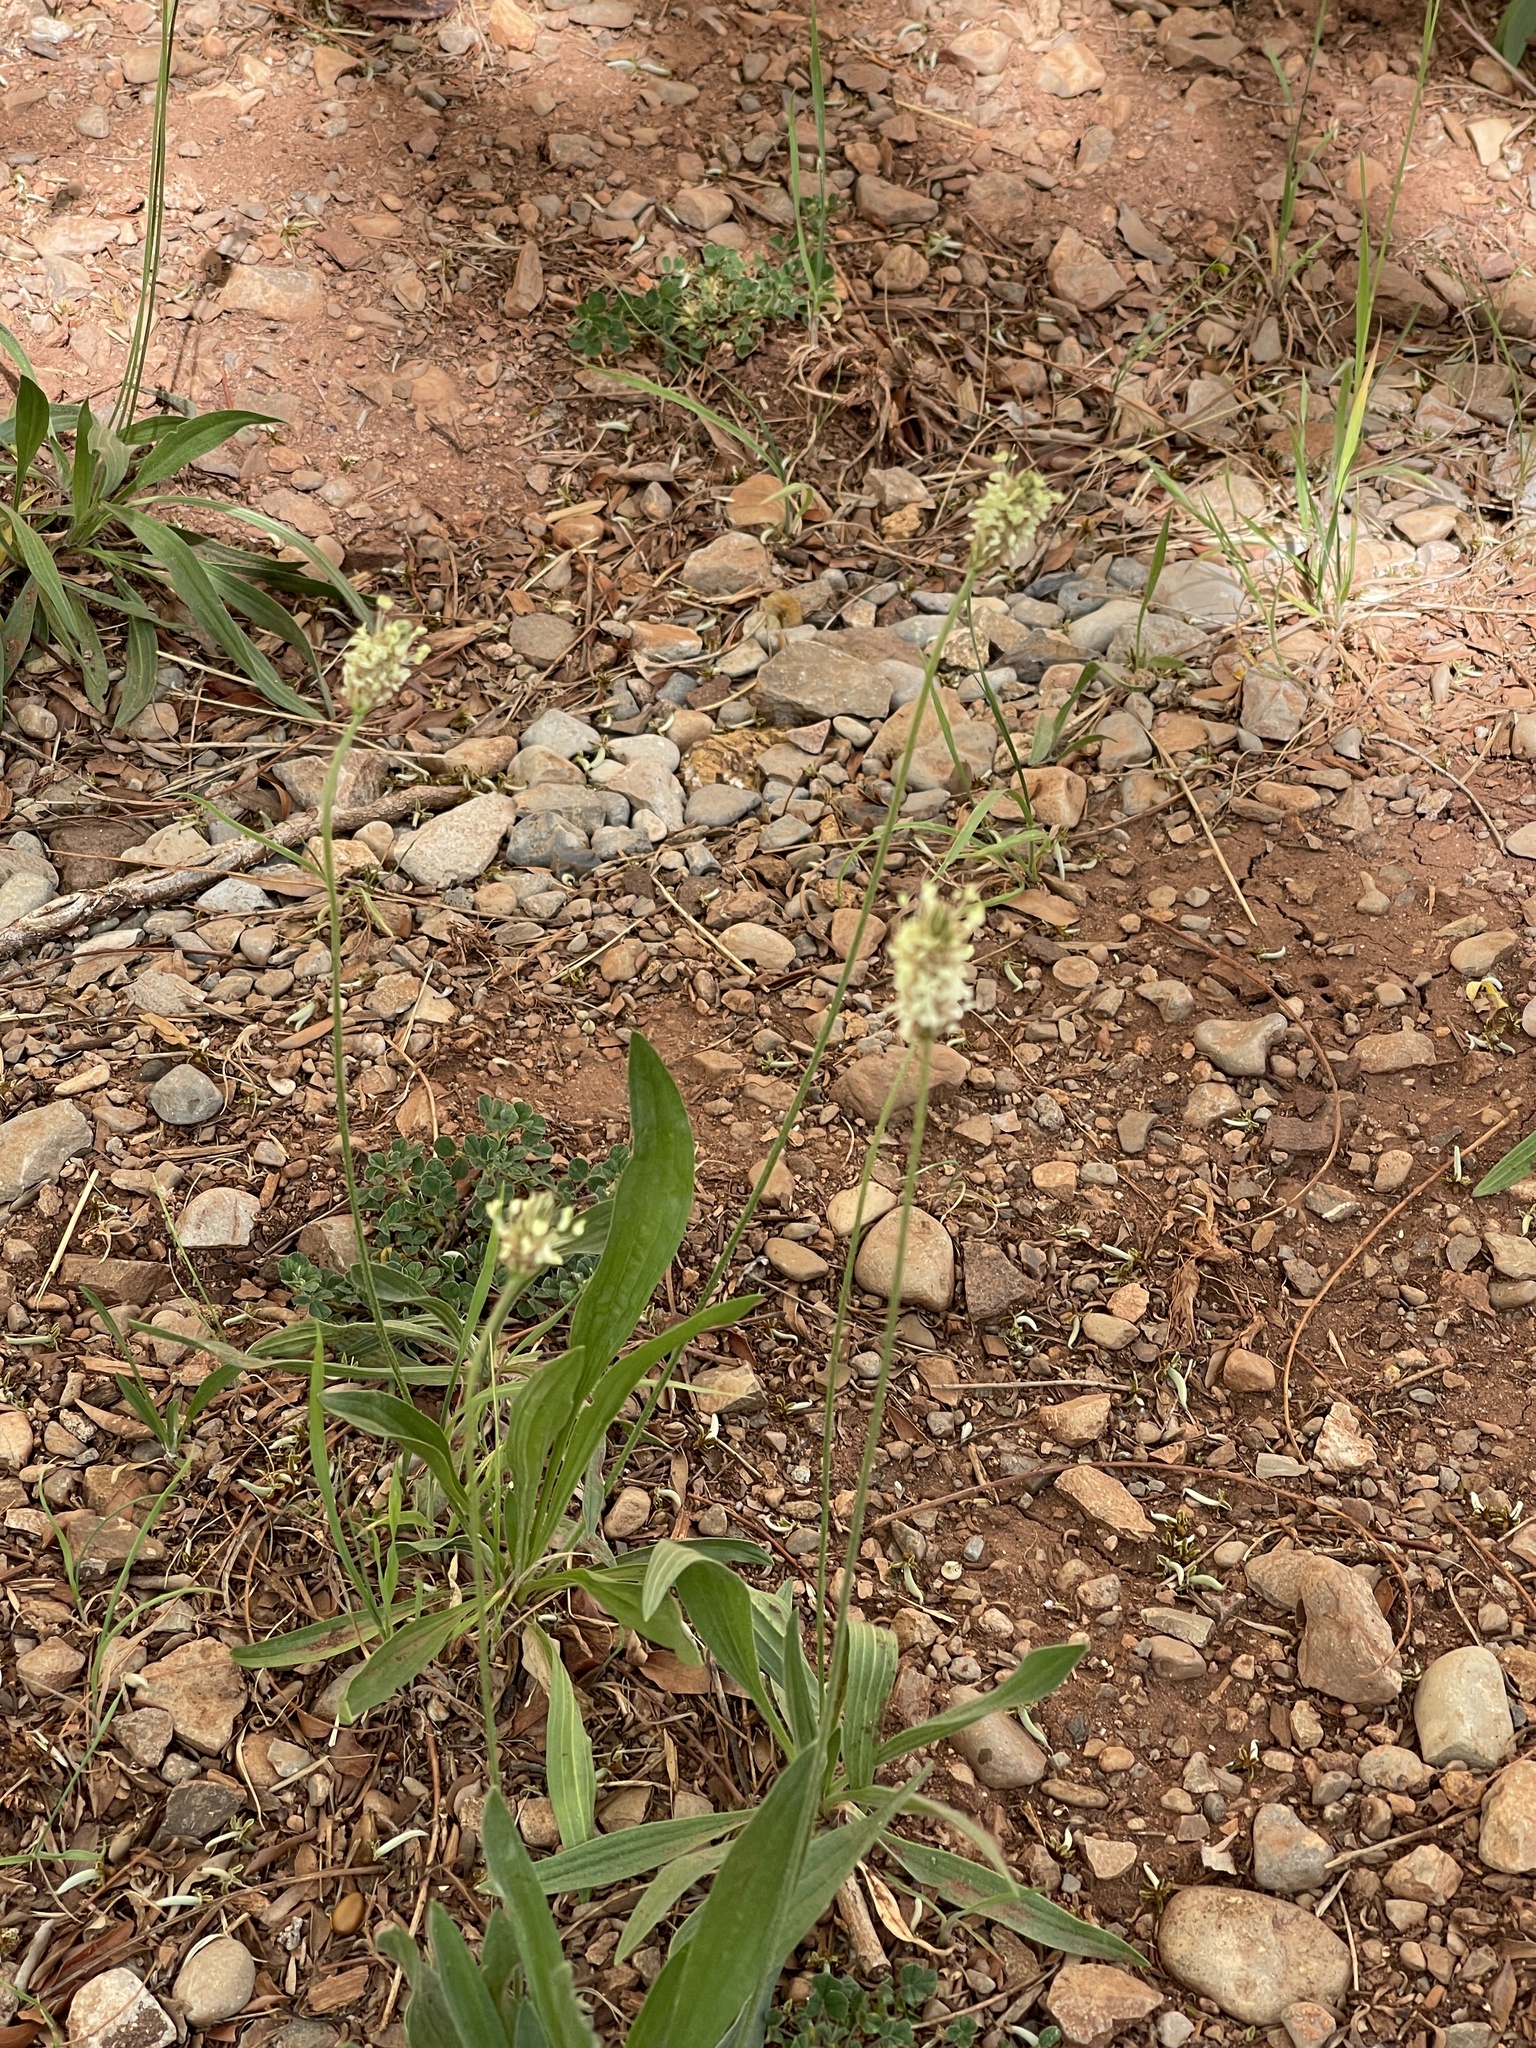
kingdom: Plantae
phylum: Tracheophyta
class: Magnoliopsida
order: Lamiales
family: Plantaginaceae
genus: Plantago
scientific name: Plantago lanceolata
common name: Ribwort plantain
